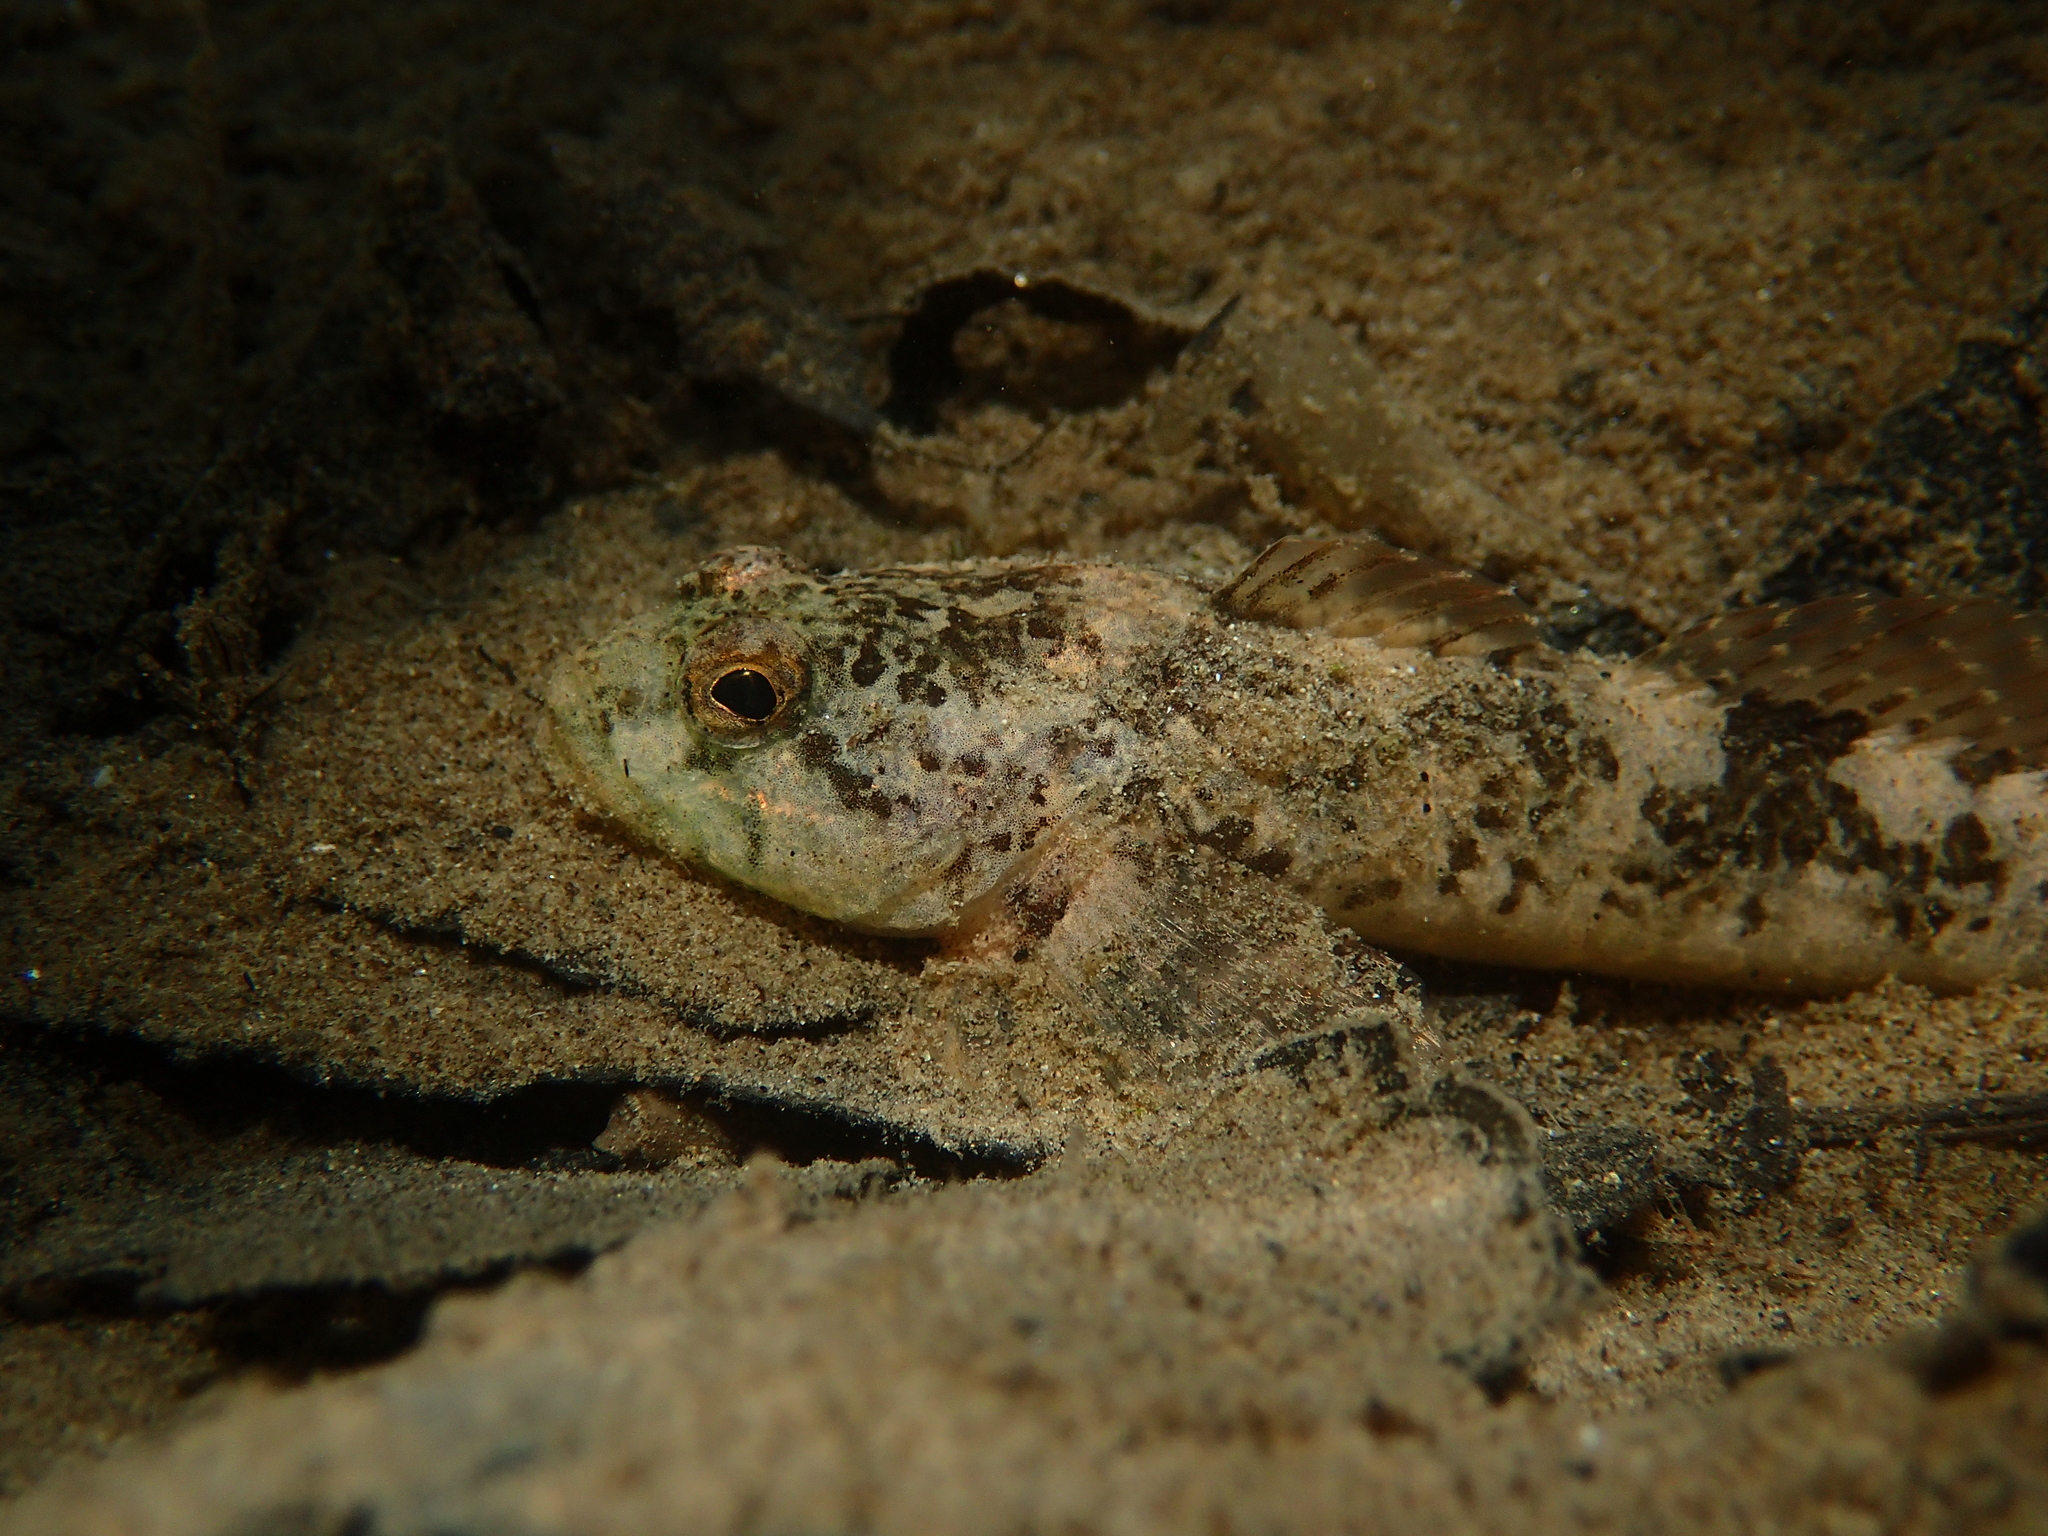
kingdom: Animalia
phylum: Chordata
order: Scorpaeniformes
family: Cottidae
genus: Cottus
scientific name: Cottus rondeleti
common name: Hérault sculpin
